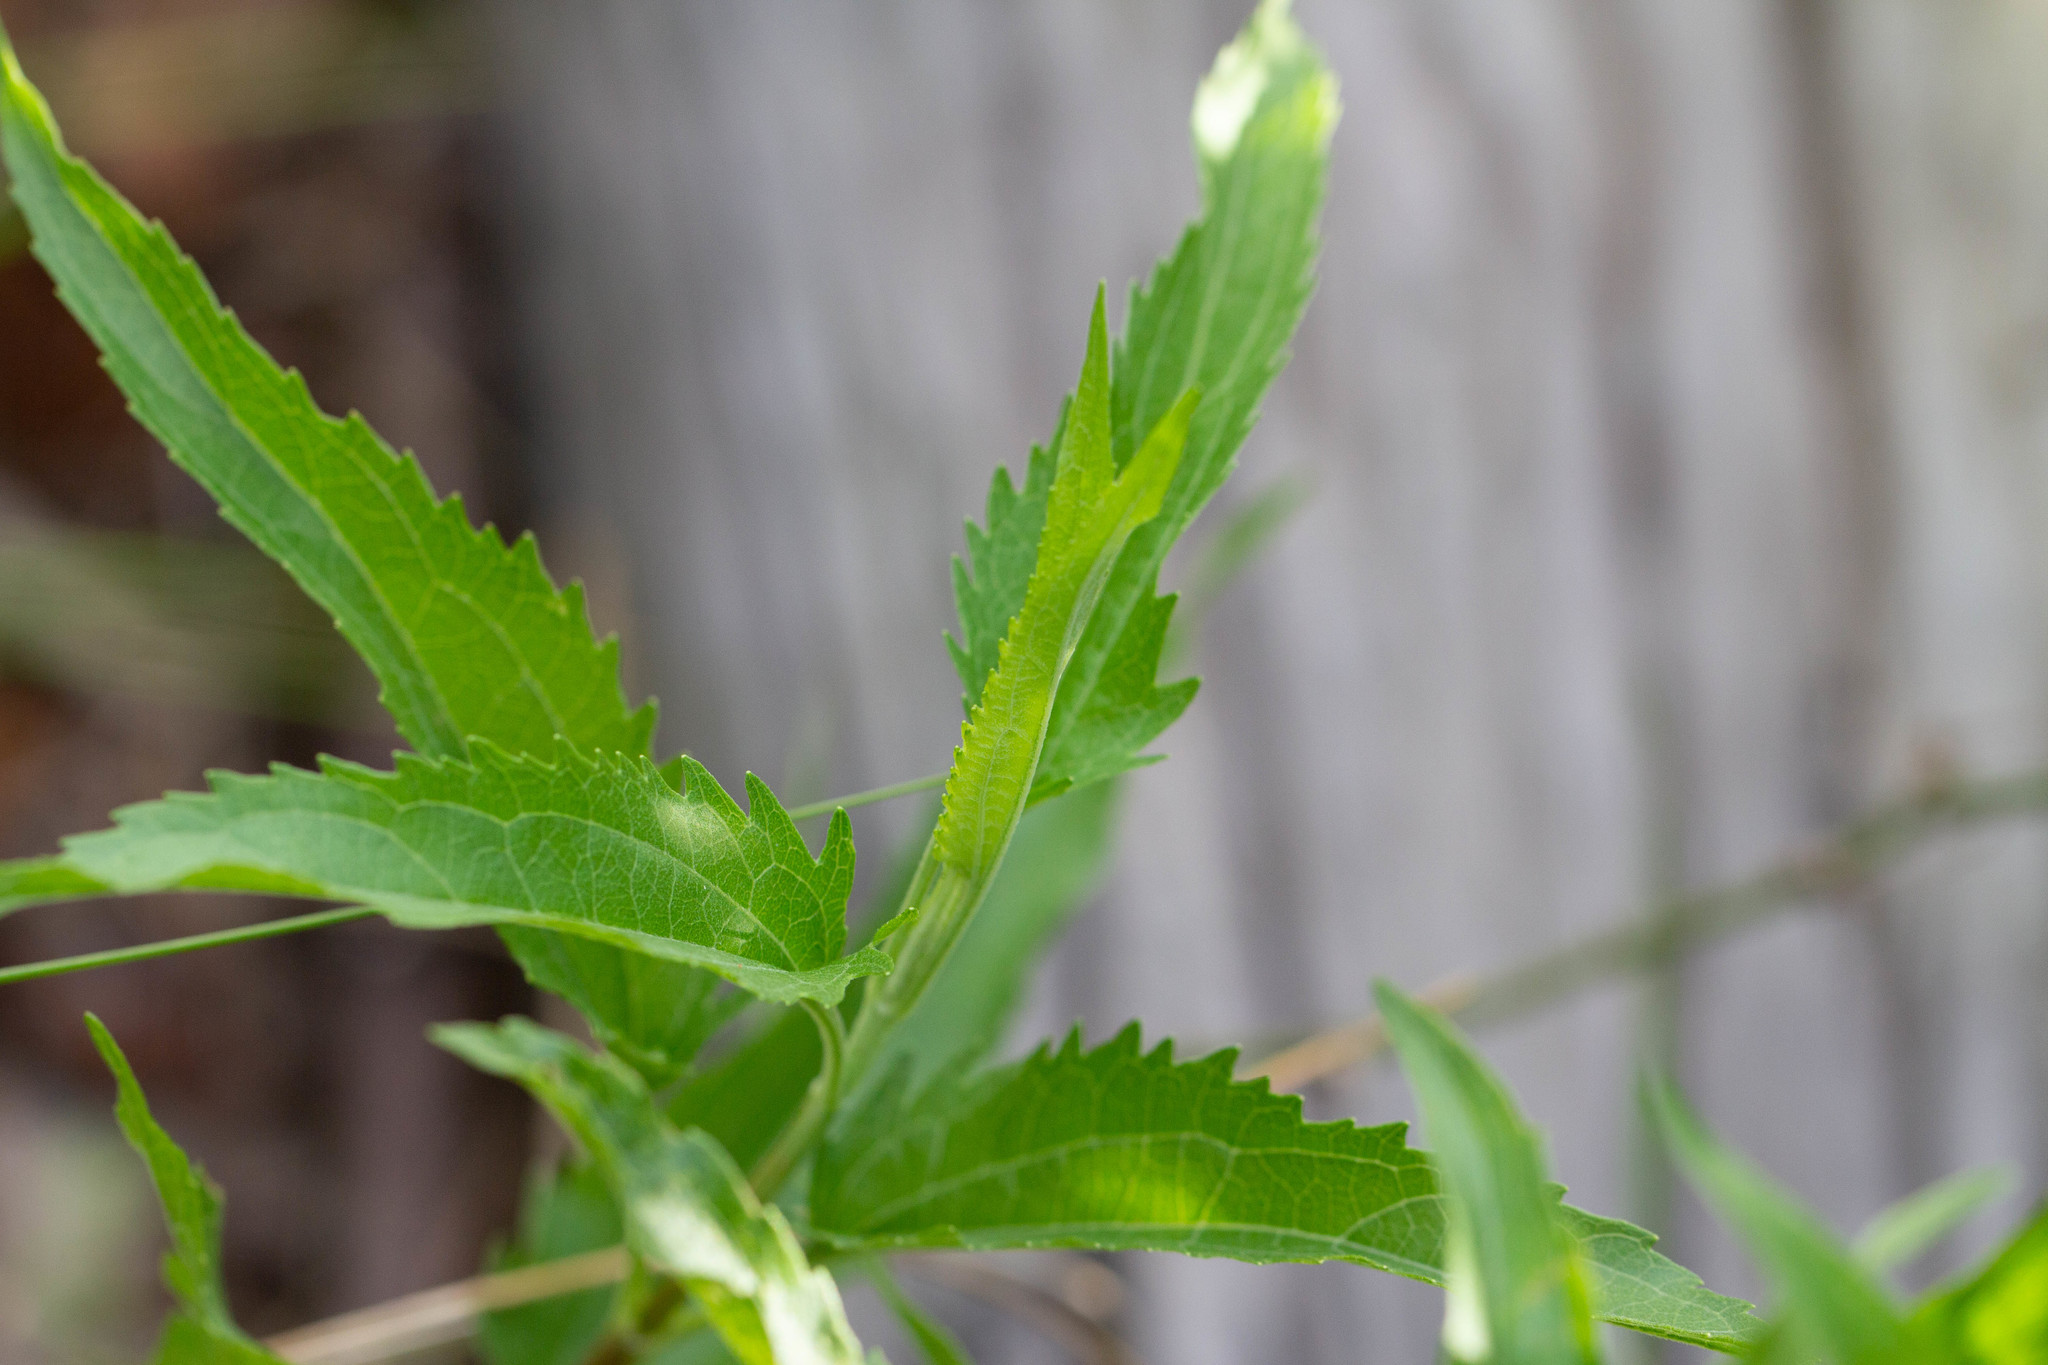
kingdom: Plantae
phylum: Tracheophyta
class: Magnoliopsida
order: Asterales
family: Asteraceae
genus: Eupatorium
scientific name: Eupatorium serotinum
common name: Late boneset
